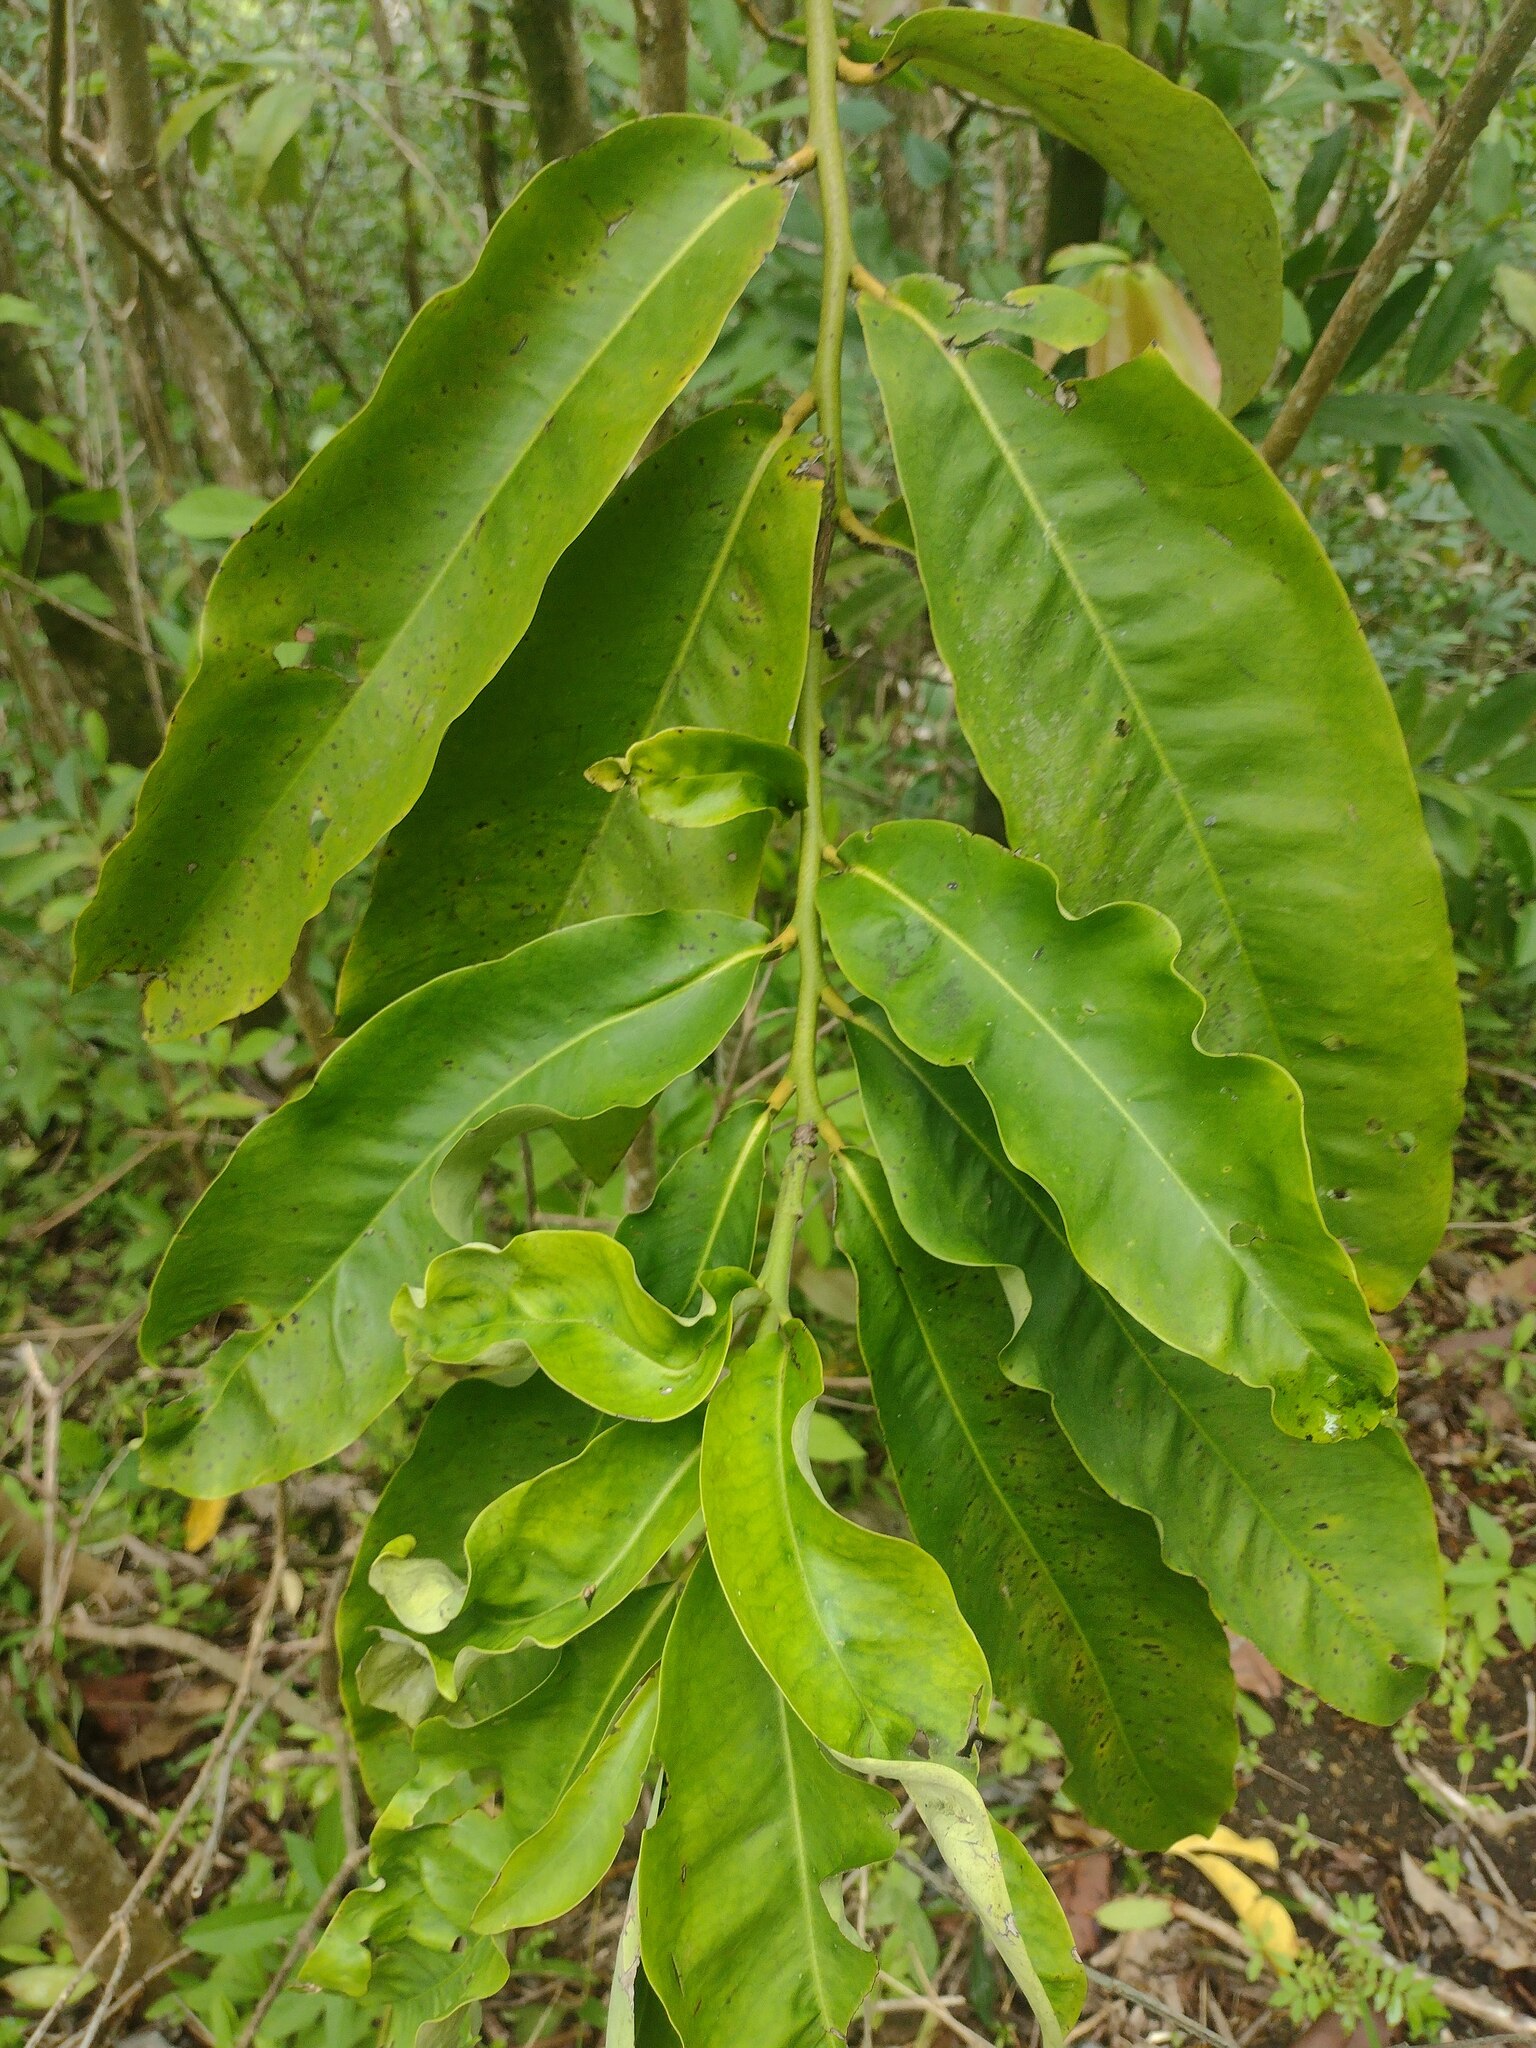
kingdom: Plantae
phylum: Tracheophyta
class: Magnoliopsida
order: Ericales
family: Ebenaceae
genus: Diospyros
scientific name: Diospyros blancoi
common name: Mabola-tree
